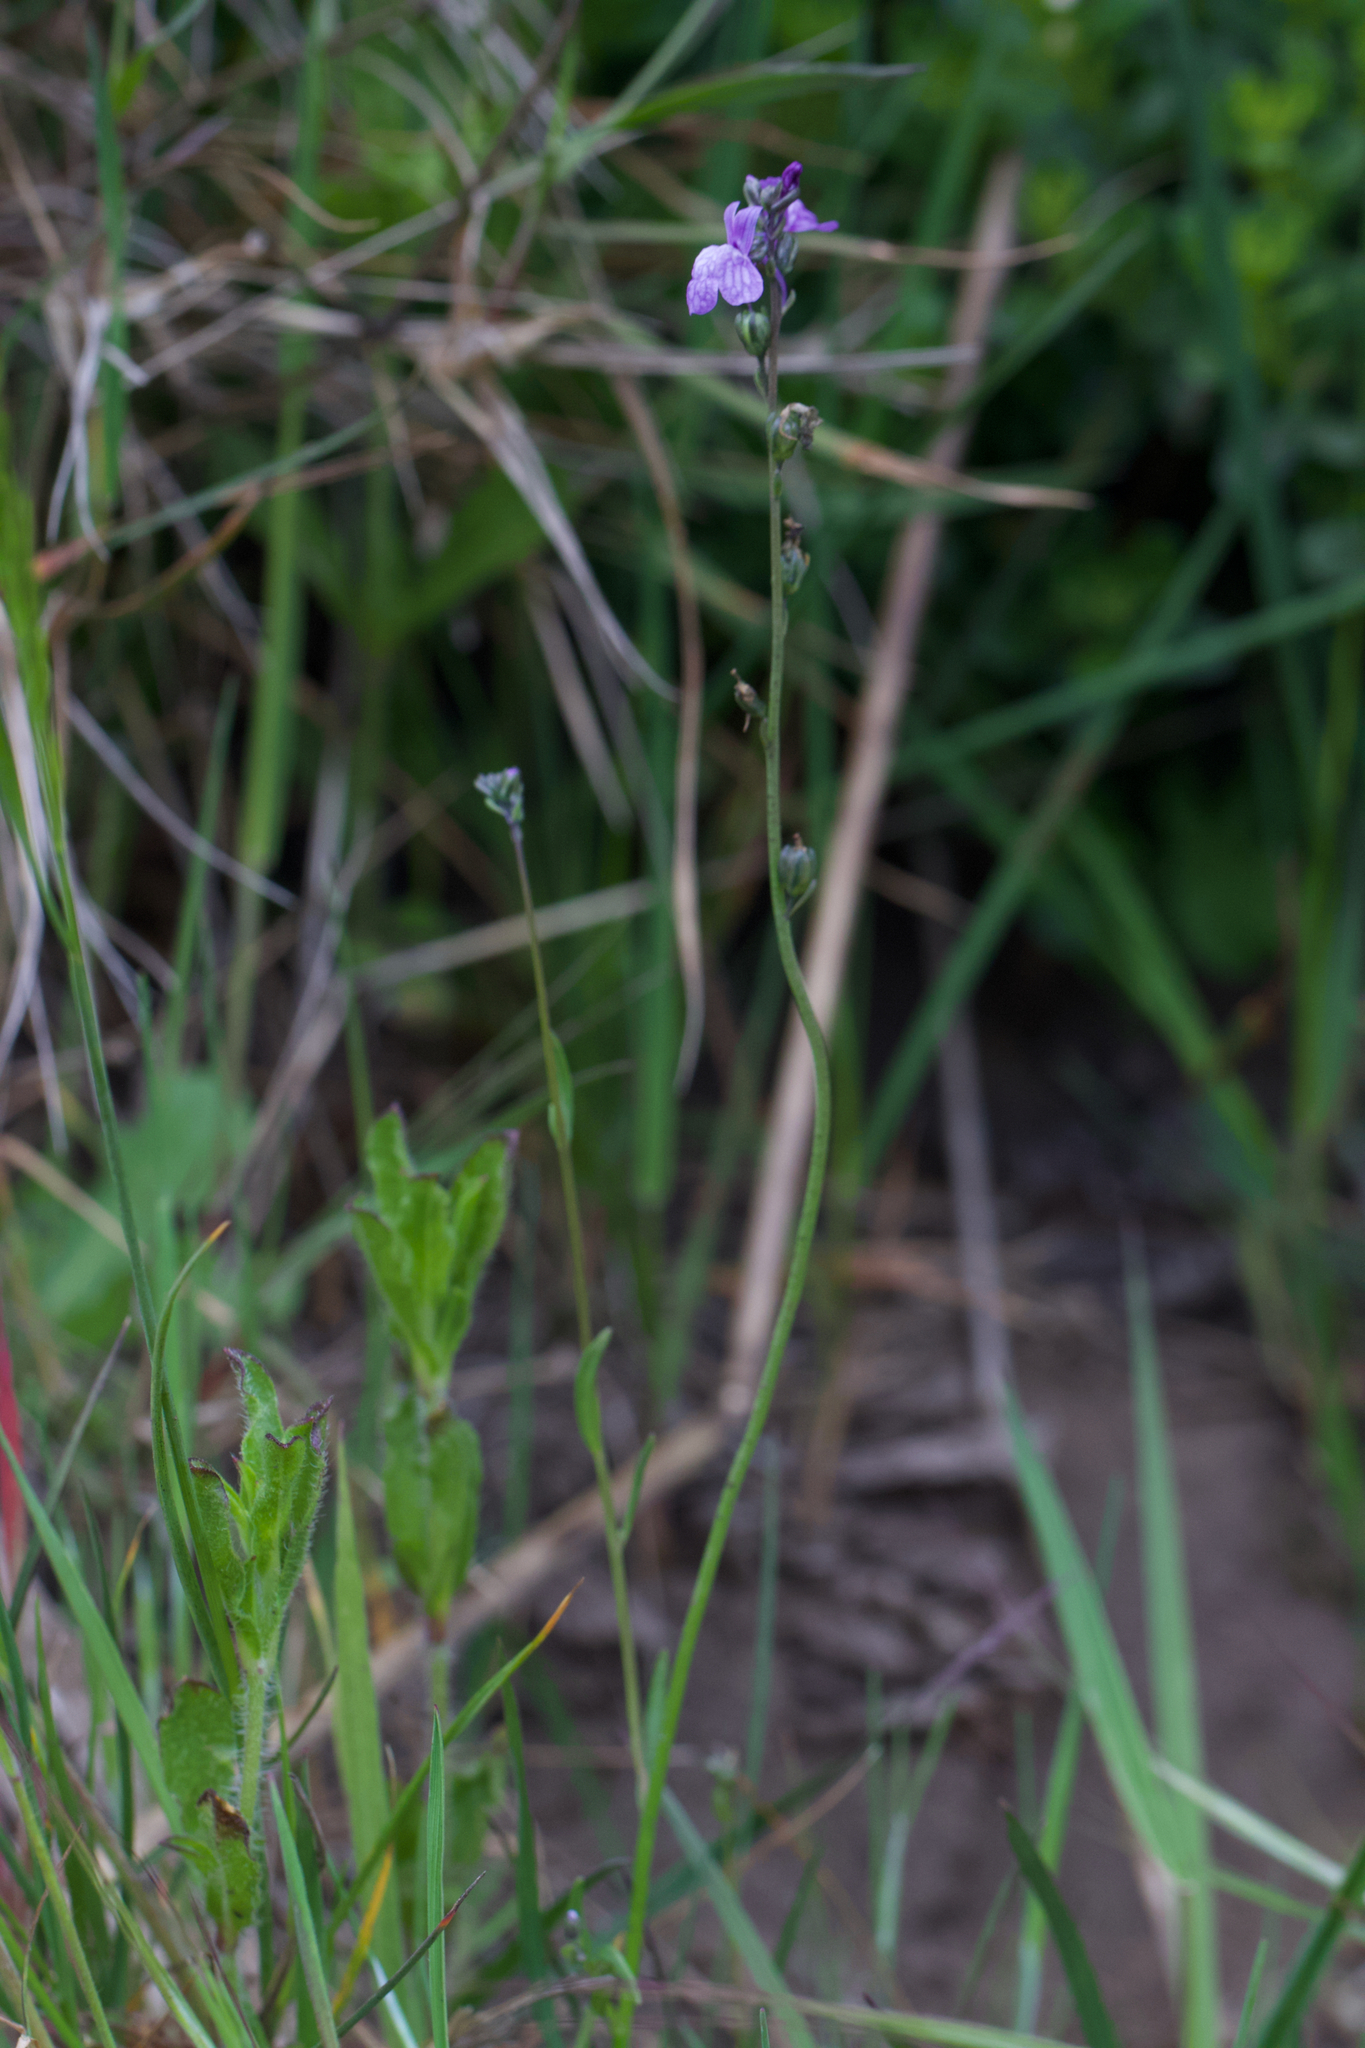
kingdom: Plantae
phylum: Tracheophyta
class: Magnoliopsida
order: Lamiales
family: Plantaginaceae
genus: Nuttallanthus
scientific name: Nuttallanthus texanus
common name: Texas toadflax
